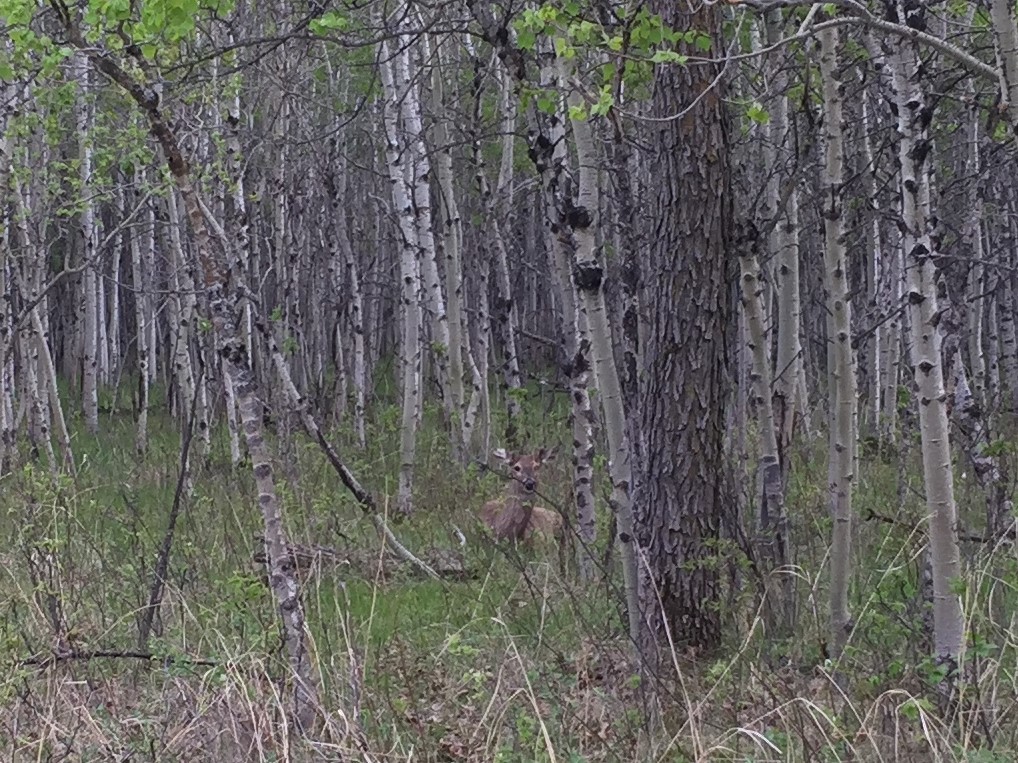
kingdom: Animalia
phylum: Chordata
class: Mammalia
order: Artiodactyla
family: Cervidae
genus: Odocoileus
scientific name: Odocoileus virginianus
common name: White-tailed deer
